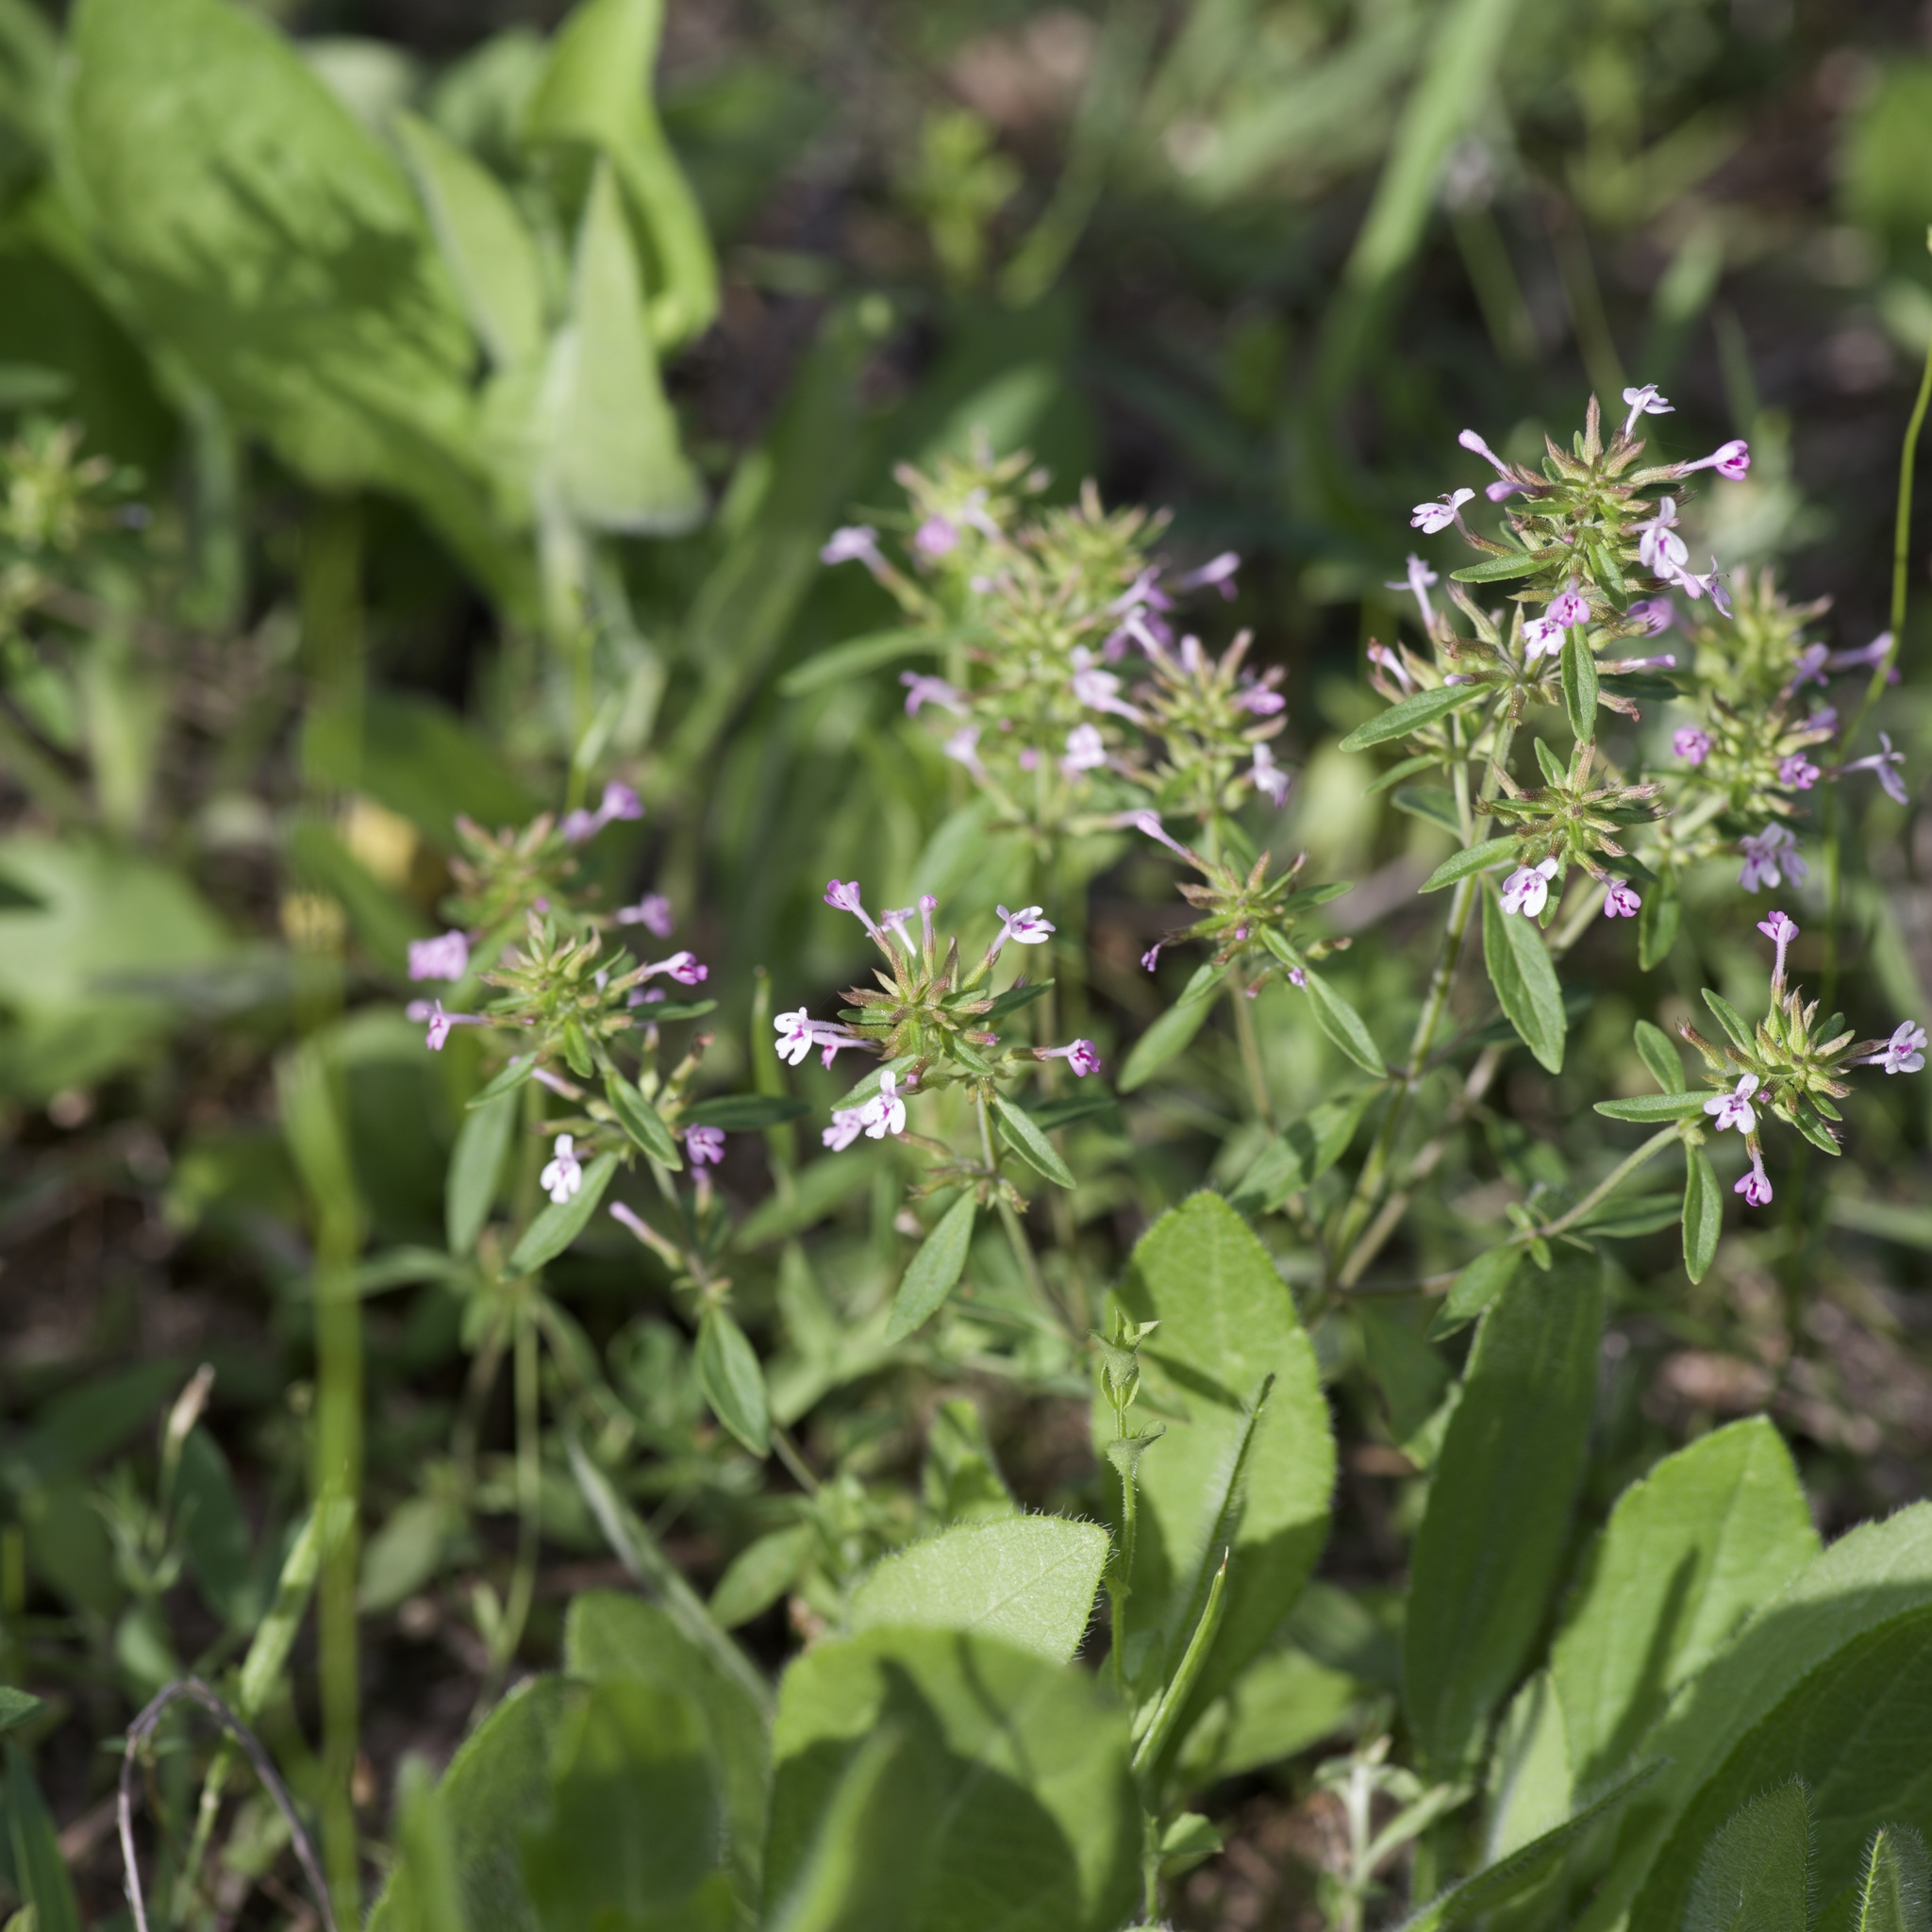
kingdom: Plantae
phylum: Tracheophyta
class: Magnoliopsida
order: Lamiales
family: Lamiaceae
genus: Hedeoma
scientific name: Hedeoma acinoides
